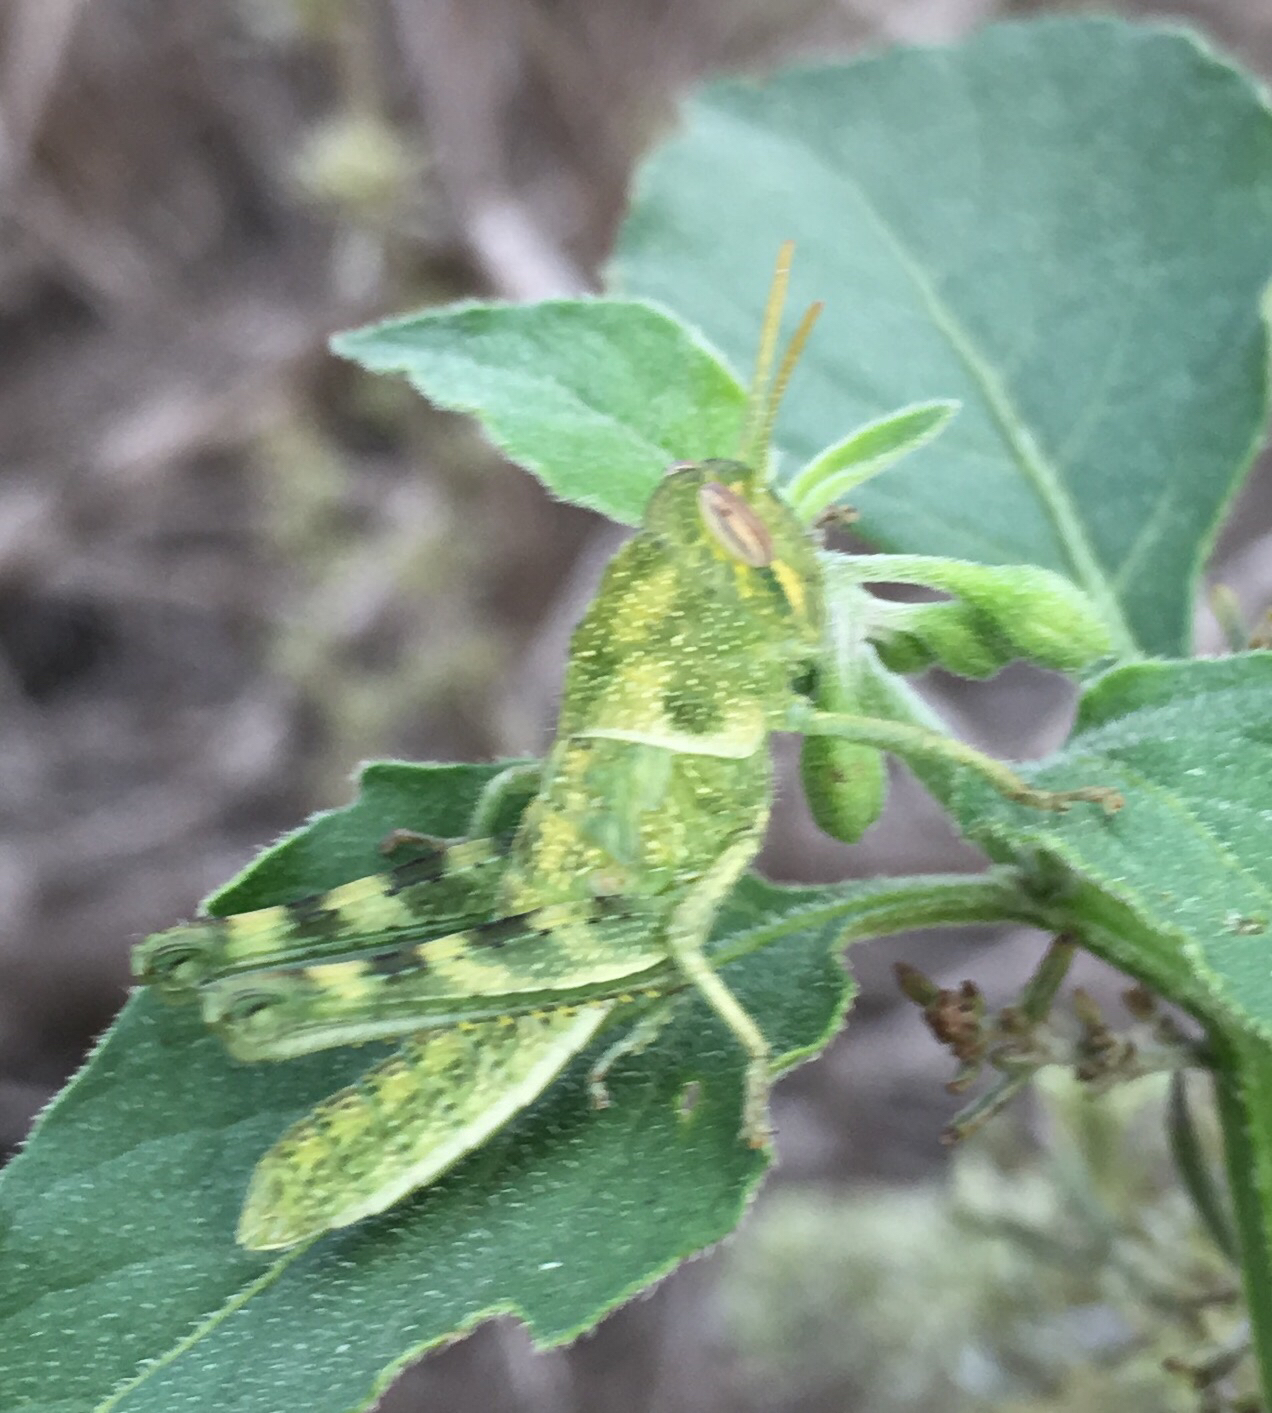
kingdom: Animalia
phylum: Arthropoda
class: Insecta
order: Orthoptera
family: Acrididae
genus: Schistocerca
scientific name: Schistocerca nitens
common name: Vagrant grasshopper
